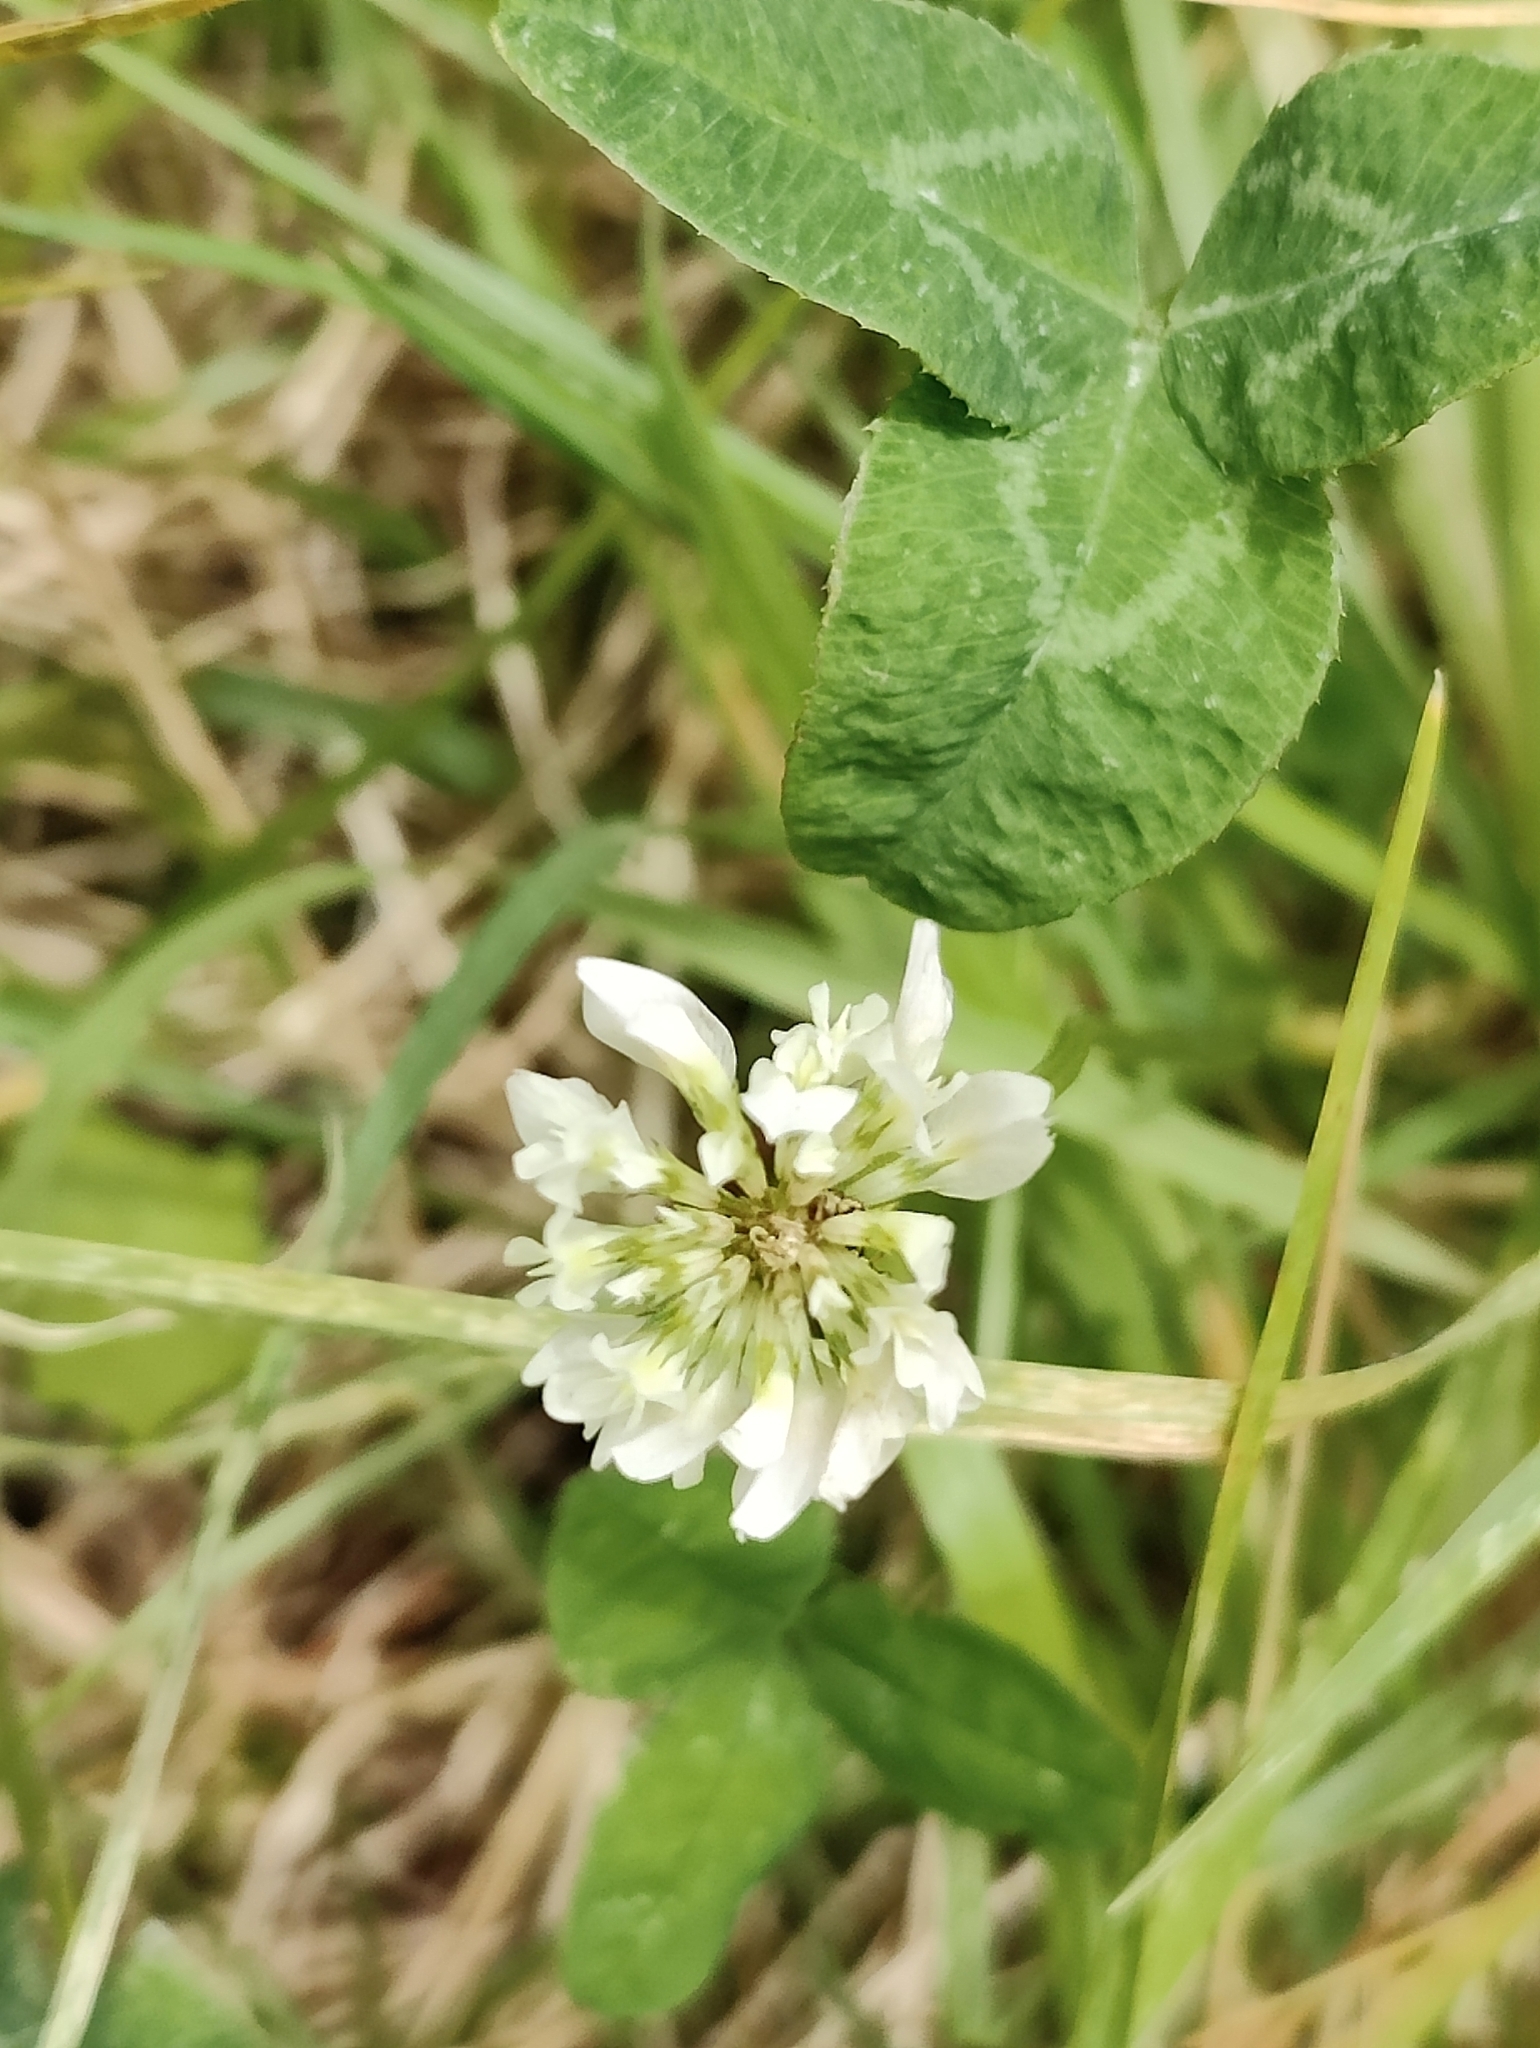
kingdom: Plantae
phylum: Tracheophyta
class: Magnoliopsida
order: Fabales
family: Fabaceae
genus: Trifolium
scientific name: Trifolium repens
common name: White clover
